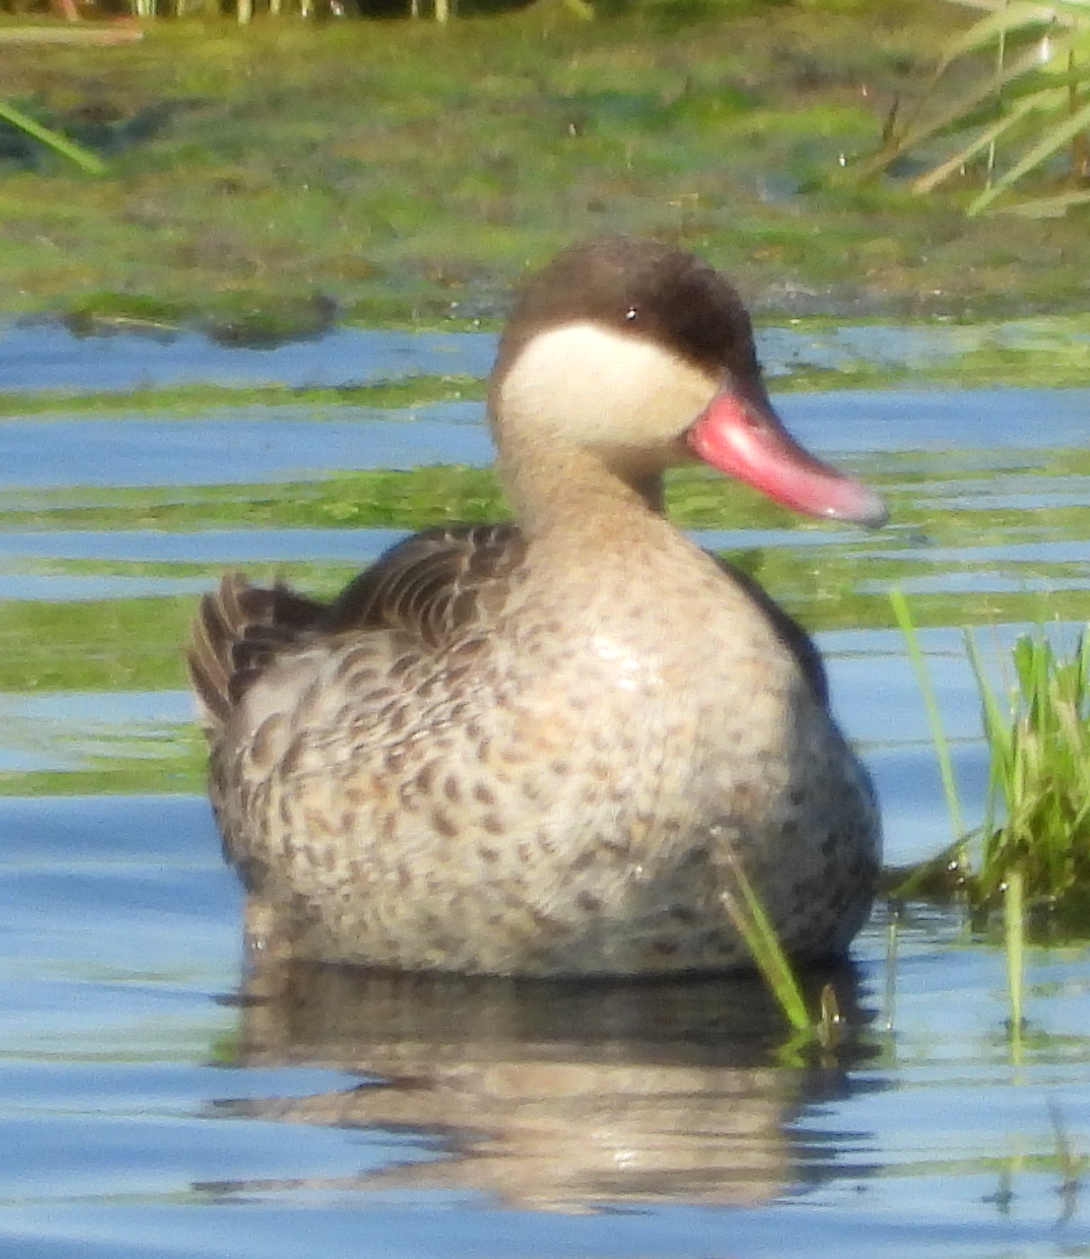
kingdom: Animalia
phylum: Chordata
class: Aves
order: Anseriformes
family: Anatidae
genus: Anas
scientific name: Anas erythrorhyncha
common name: Red-billed teal
